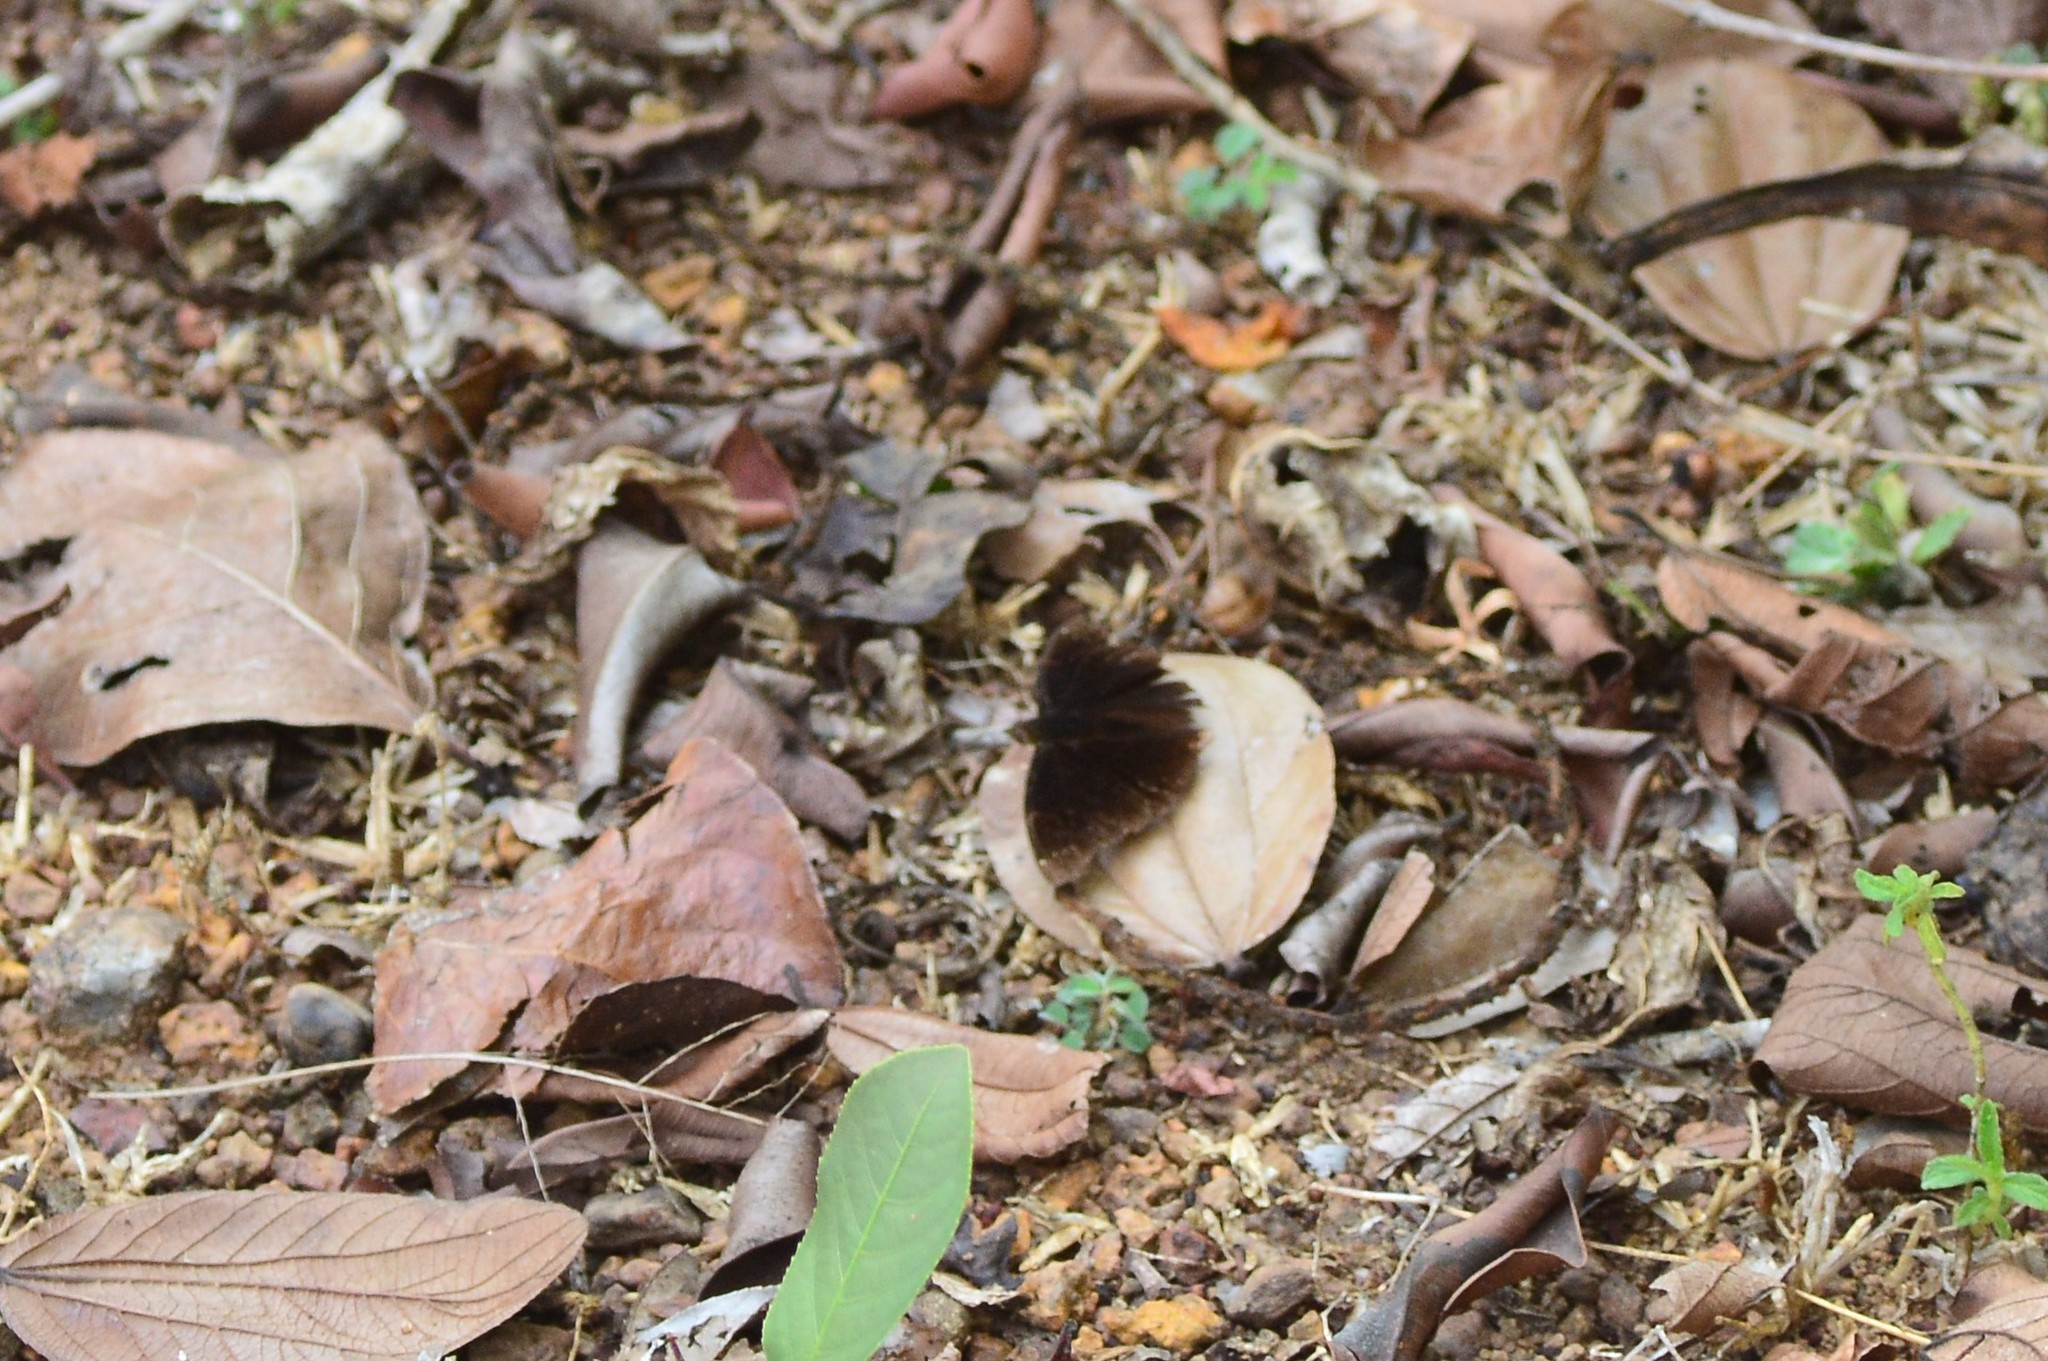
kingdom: Animalia
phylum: Arthropoda
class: Insecta
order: Lepidoptera
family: Nymphalidae
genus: Apatura
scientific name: Apatura Rohana spec
